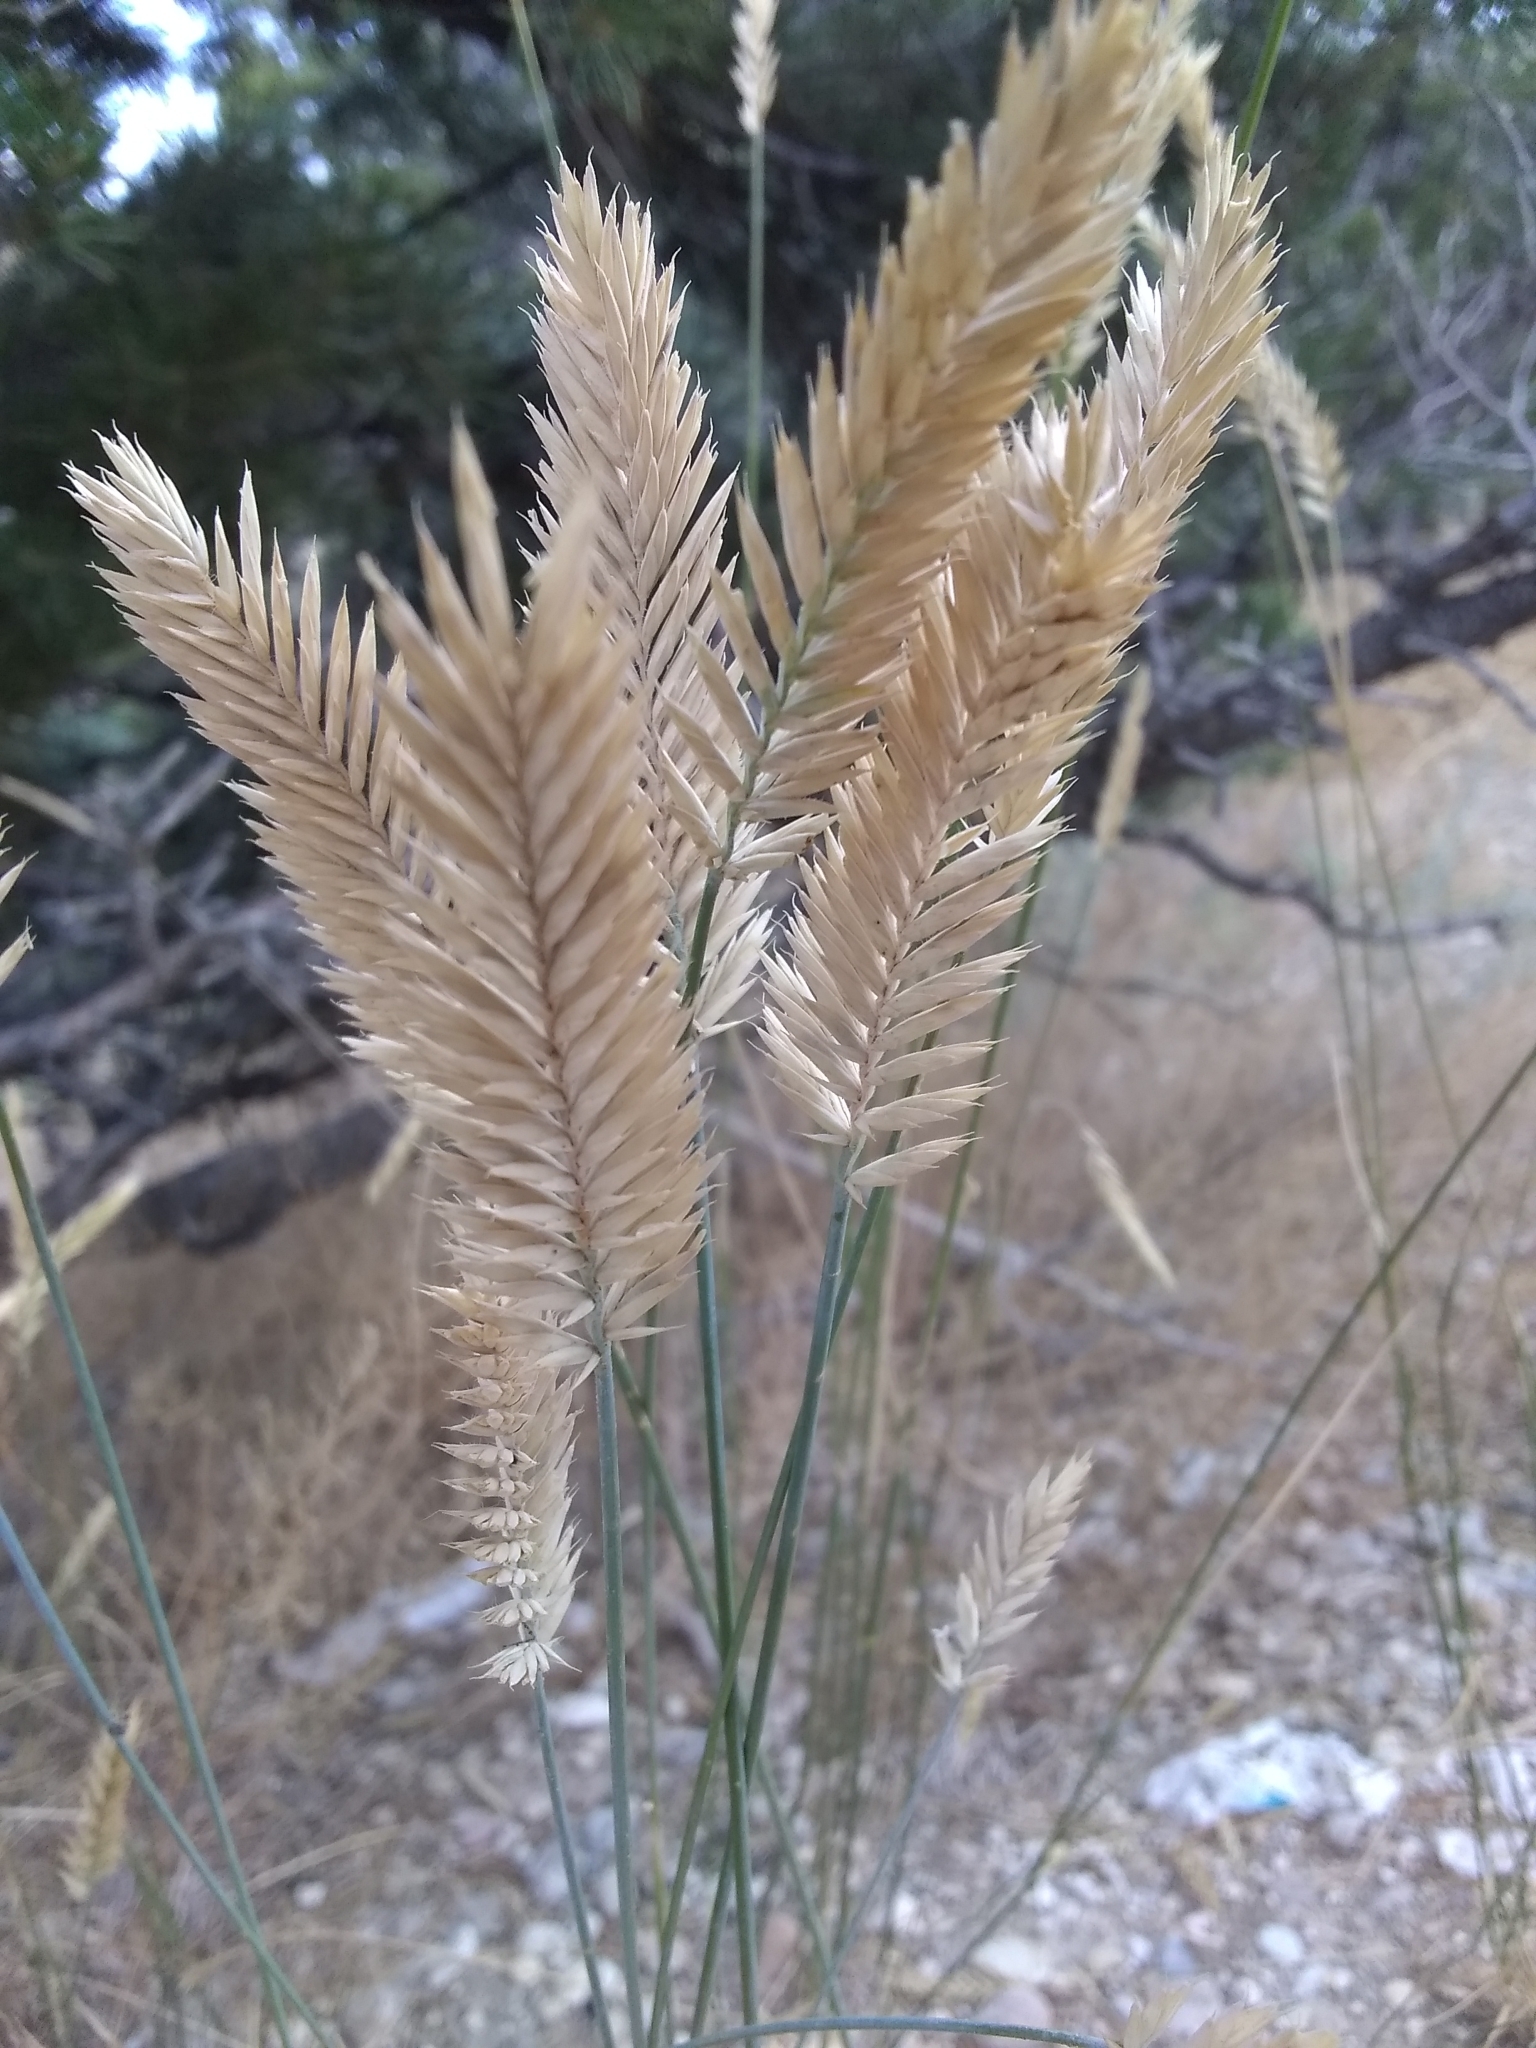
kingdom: Plantae
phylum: Tracheophyta
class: Liliopsida
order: Poales
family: Poaceae
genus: Agropyron
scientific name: Agropyron cristatum
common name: Crested wheatgrass
